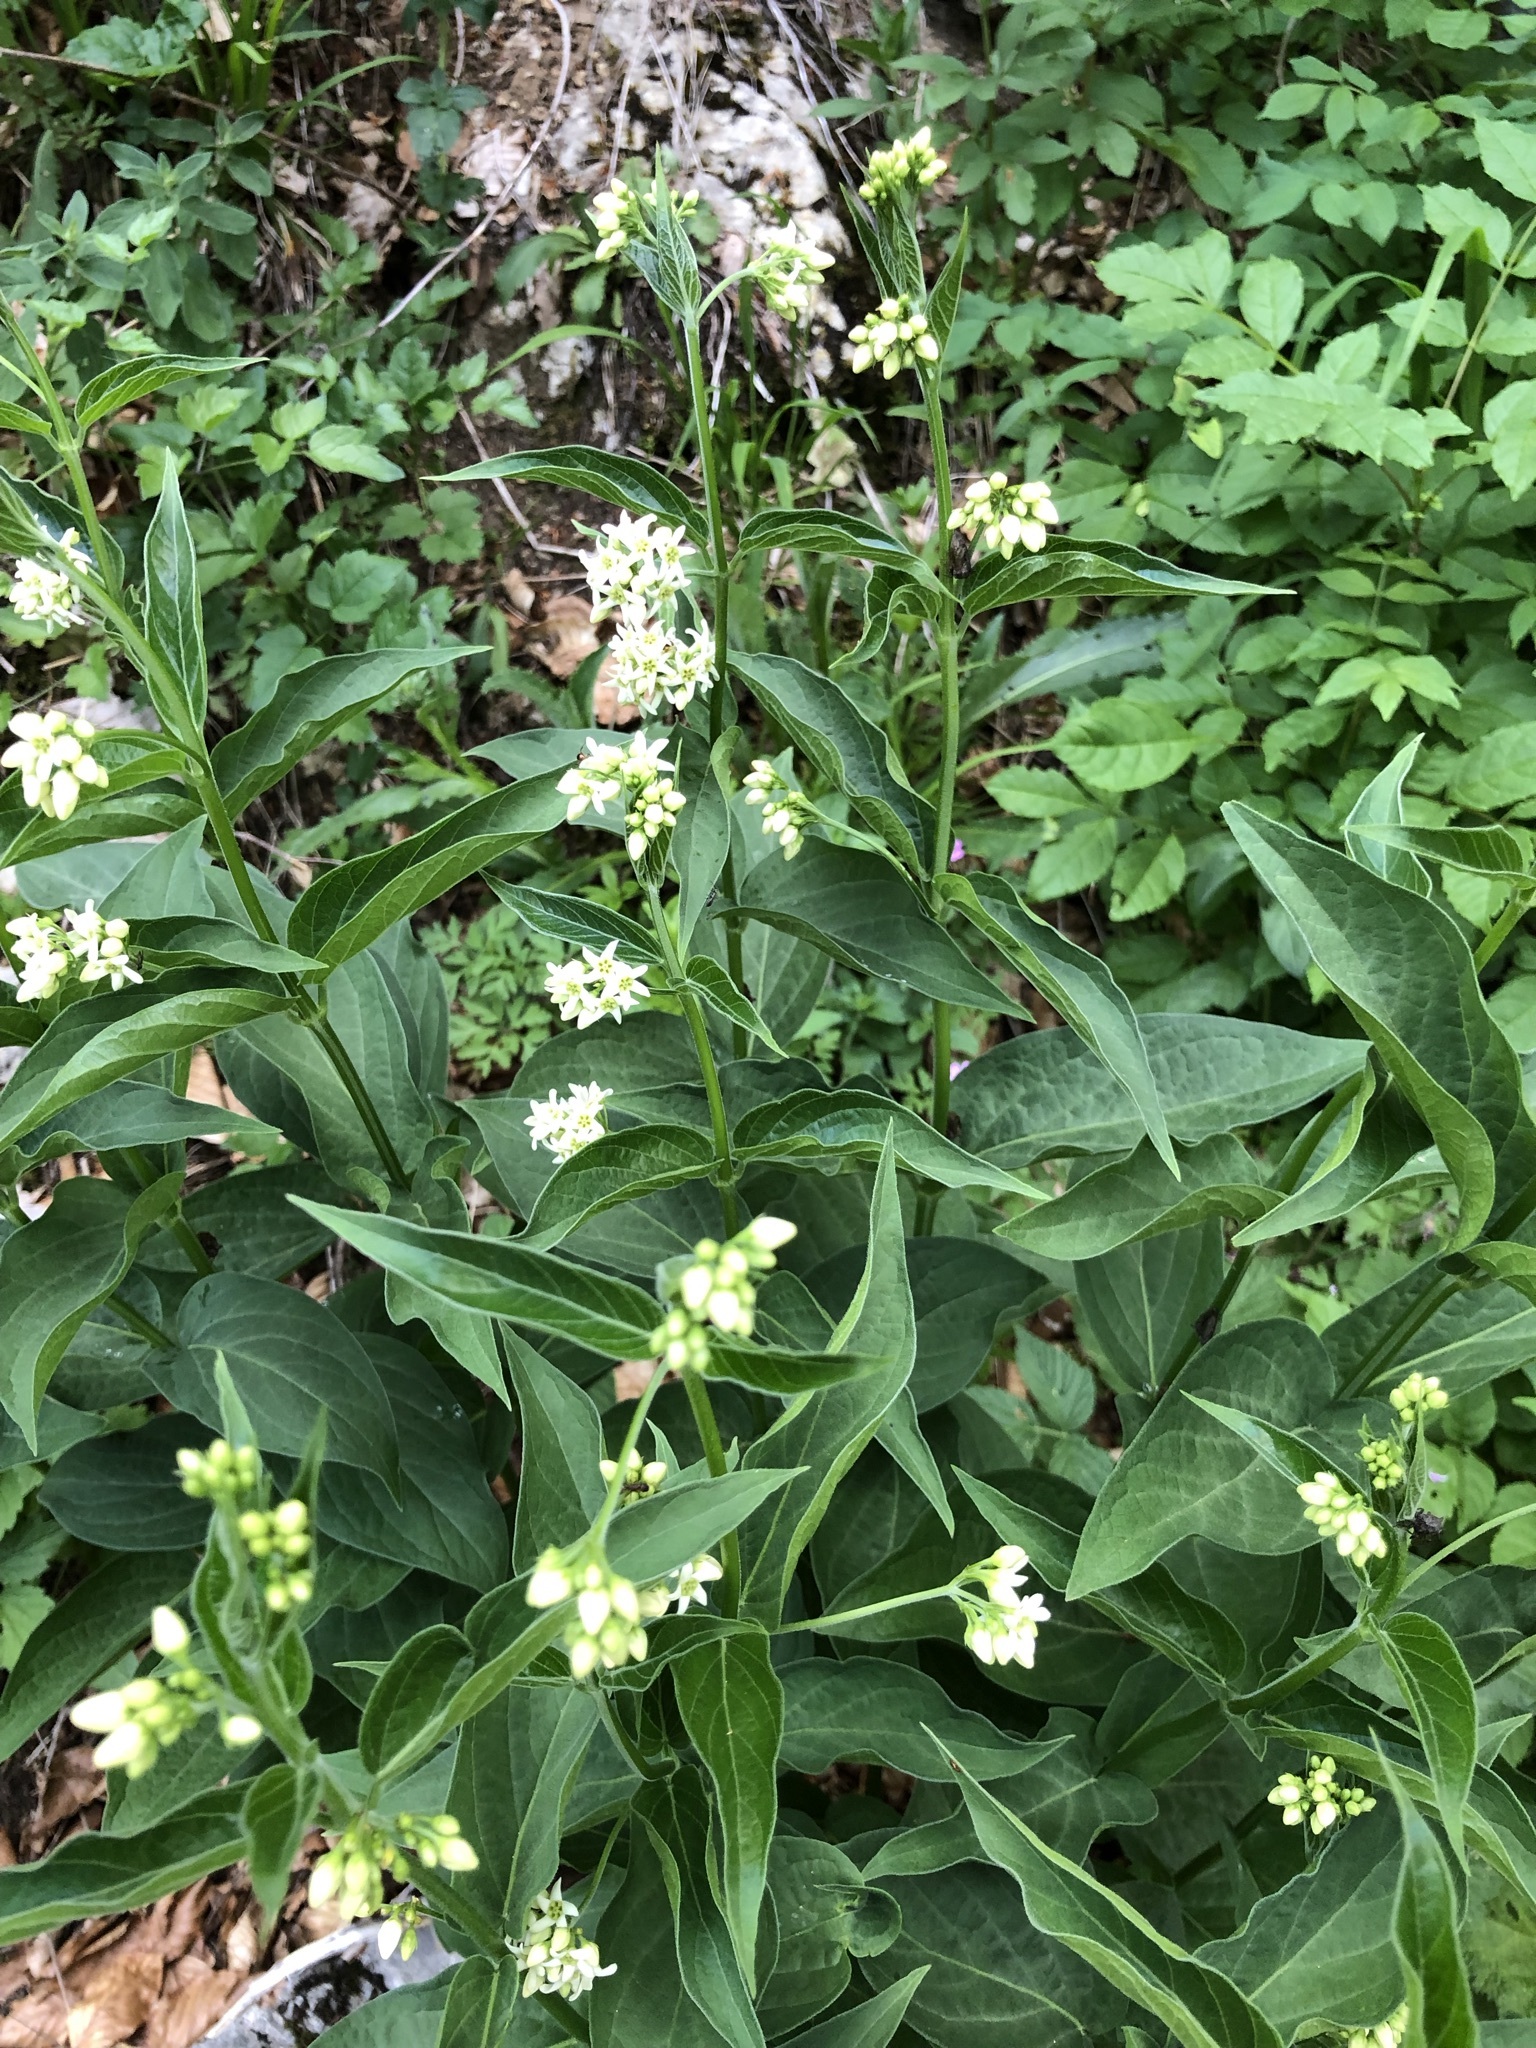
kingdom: Plantae
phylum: Tracheophyta
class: Magnoliopsida
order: Gentianales
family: Apocynaceae
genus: Vincetoxicum
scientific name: Vincetoxicum hirundinaria
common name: White swallowwort
